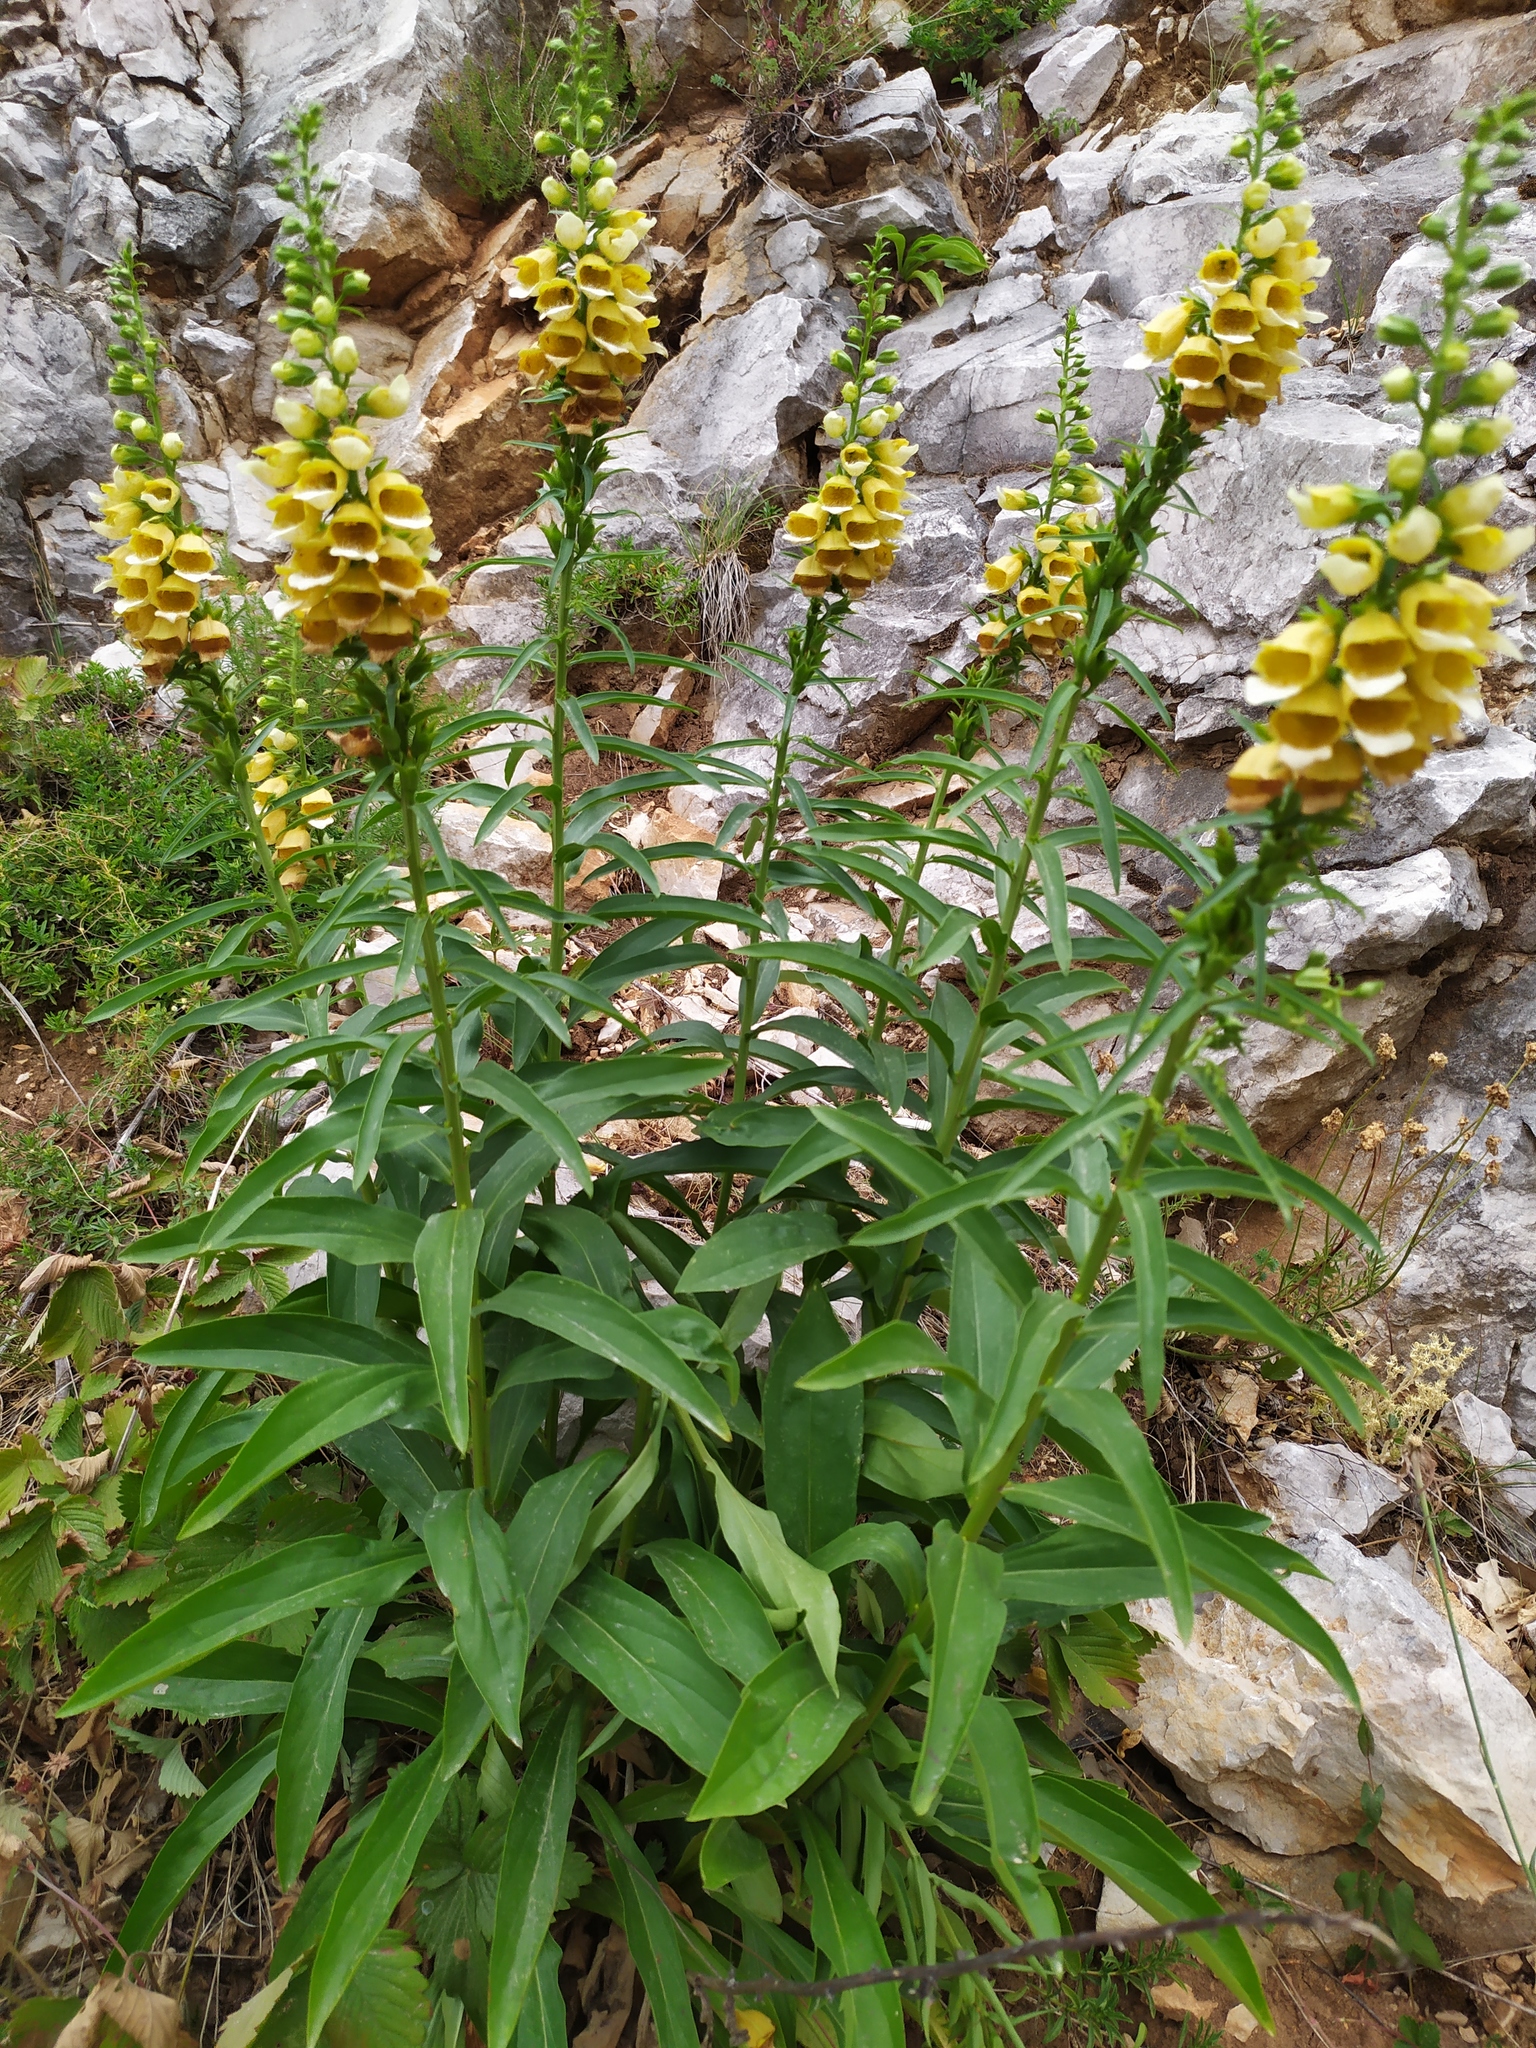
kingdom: Plantae
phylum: Tracheophyta
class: Magnoliopsida
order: Lamiales
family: Plantaginaceae
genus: Digitalis
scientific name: Digitalis grandiflora
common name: Yellow foxglove
